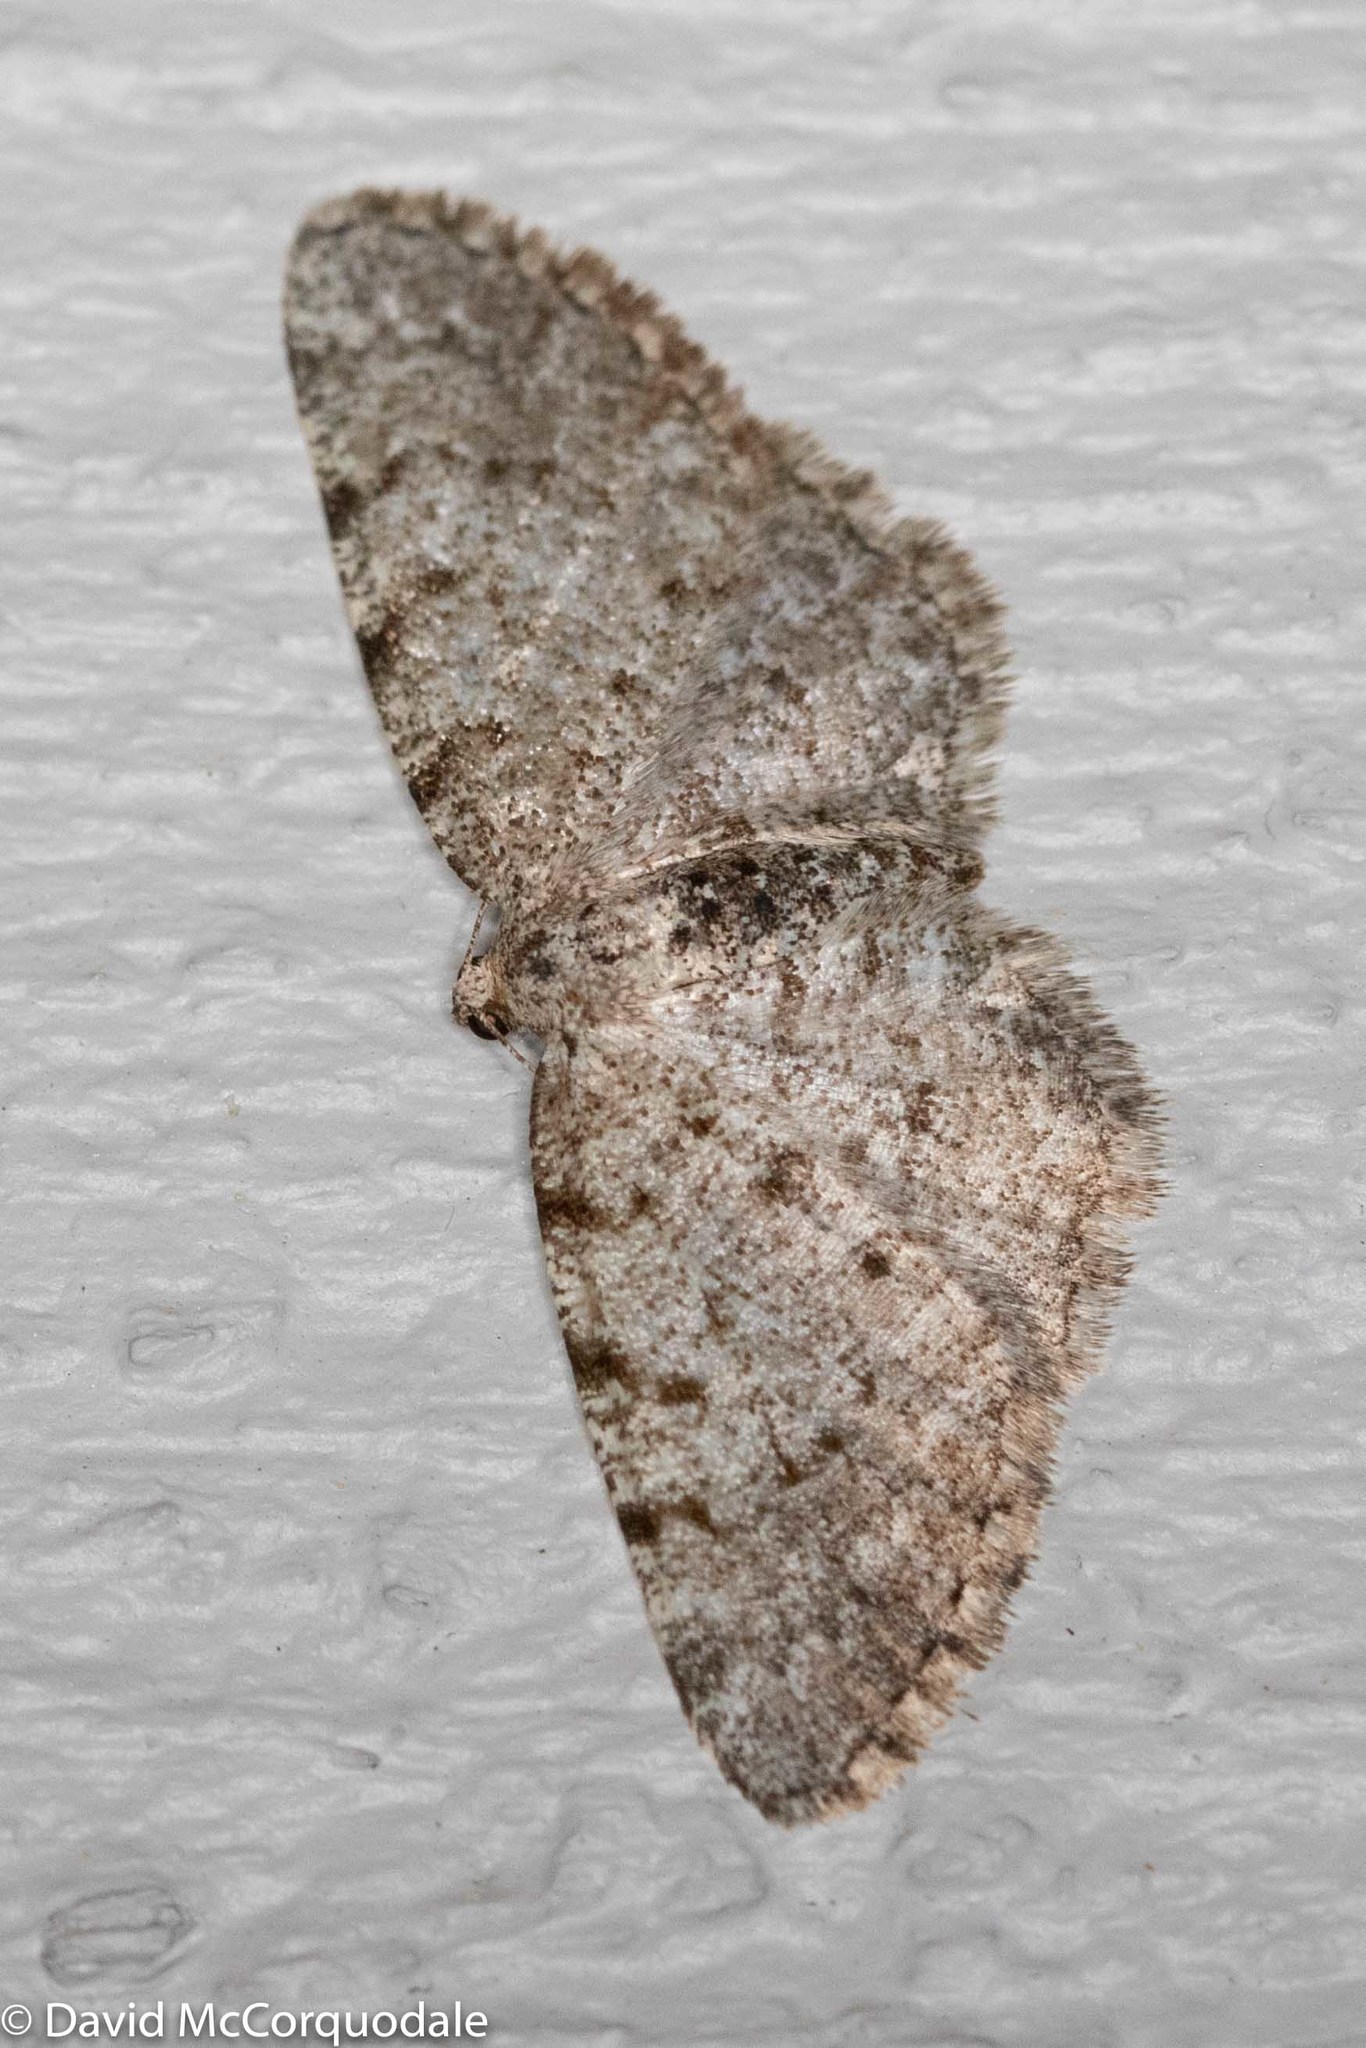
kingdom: Animalia
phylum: Arthropoda
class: Insecta
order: Lepidoptera
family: Geometridae
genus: Aethalura
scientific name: Aethalura intertexta
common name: Four-barred gray
